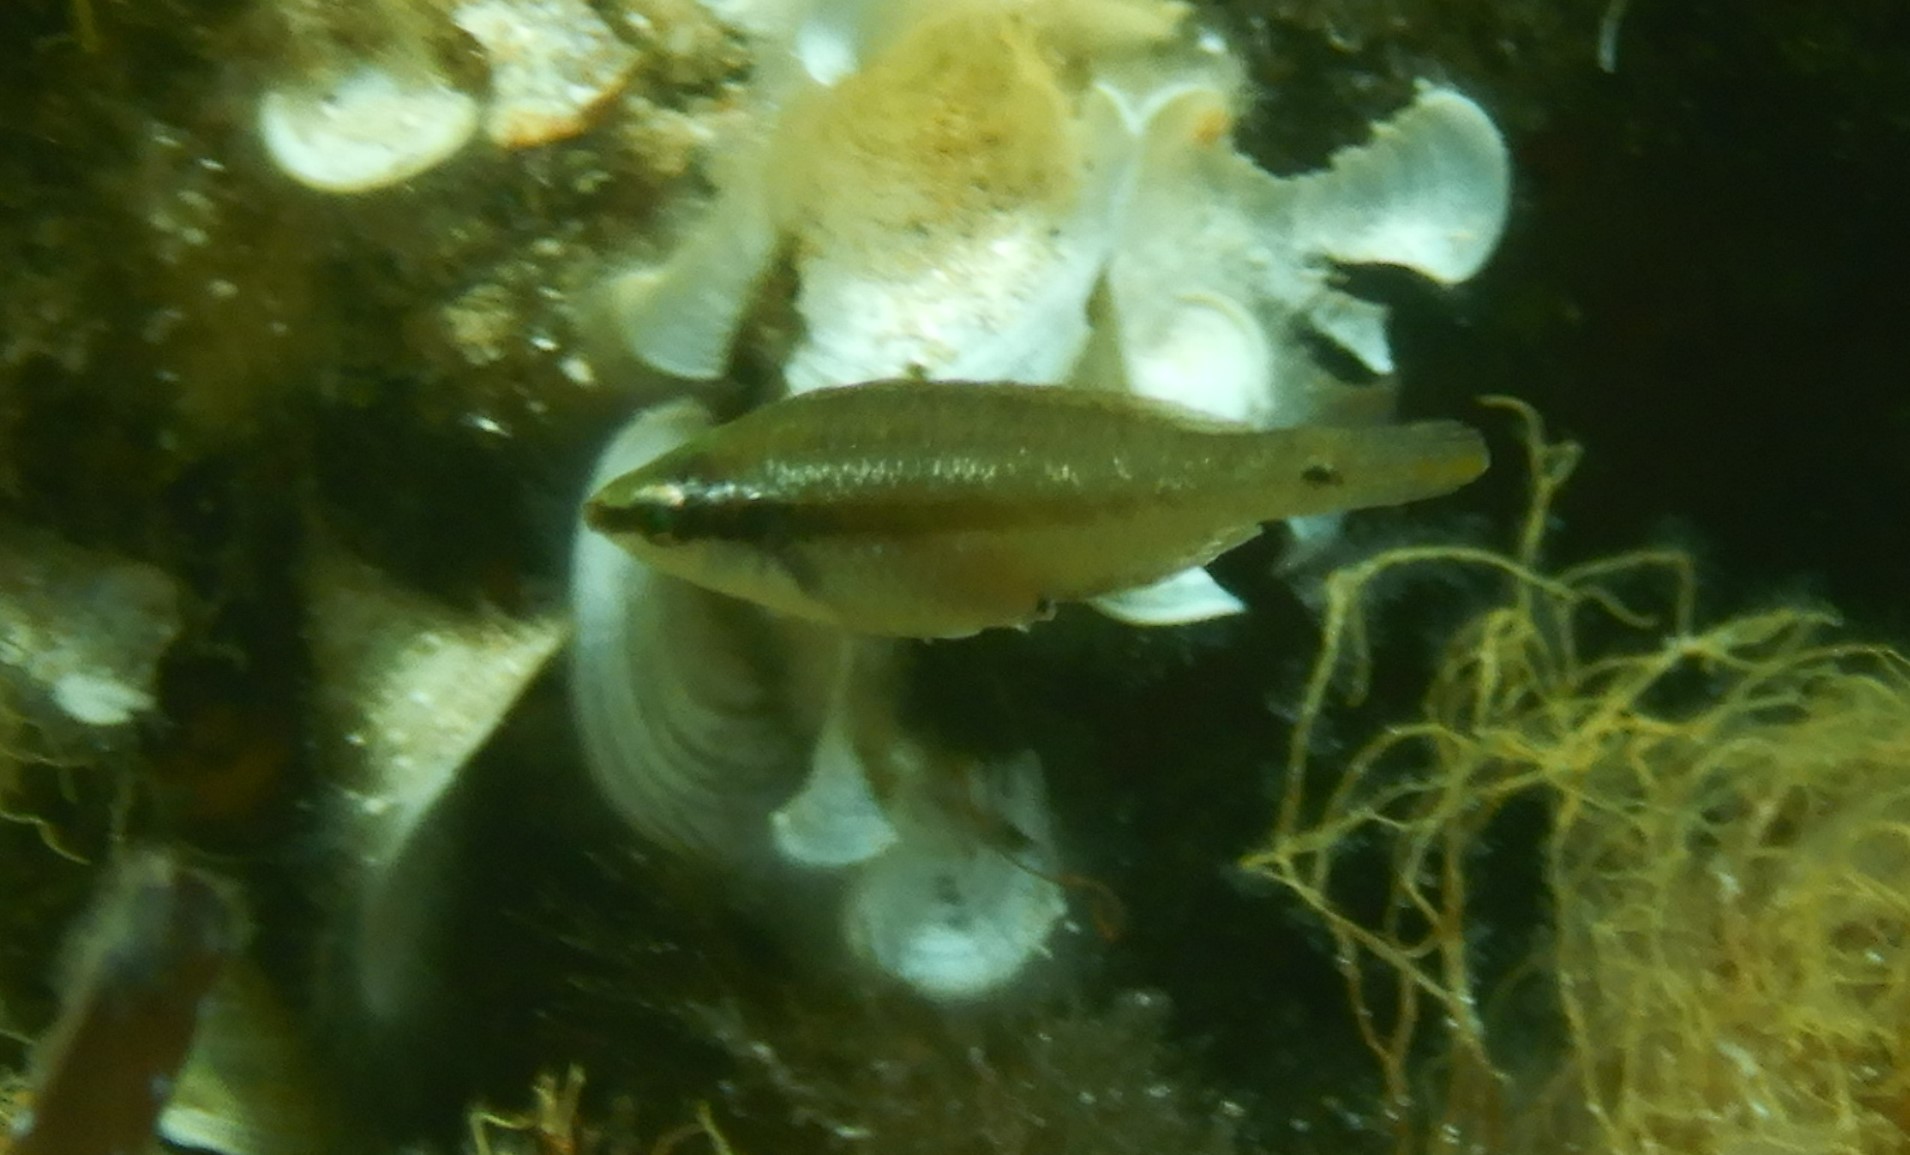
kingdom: Animalia
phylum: Chordata
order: Perciformes
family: Labridae
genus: Symphodus
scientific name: Symphodus ocellatus
